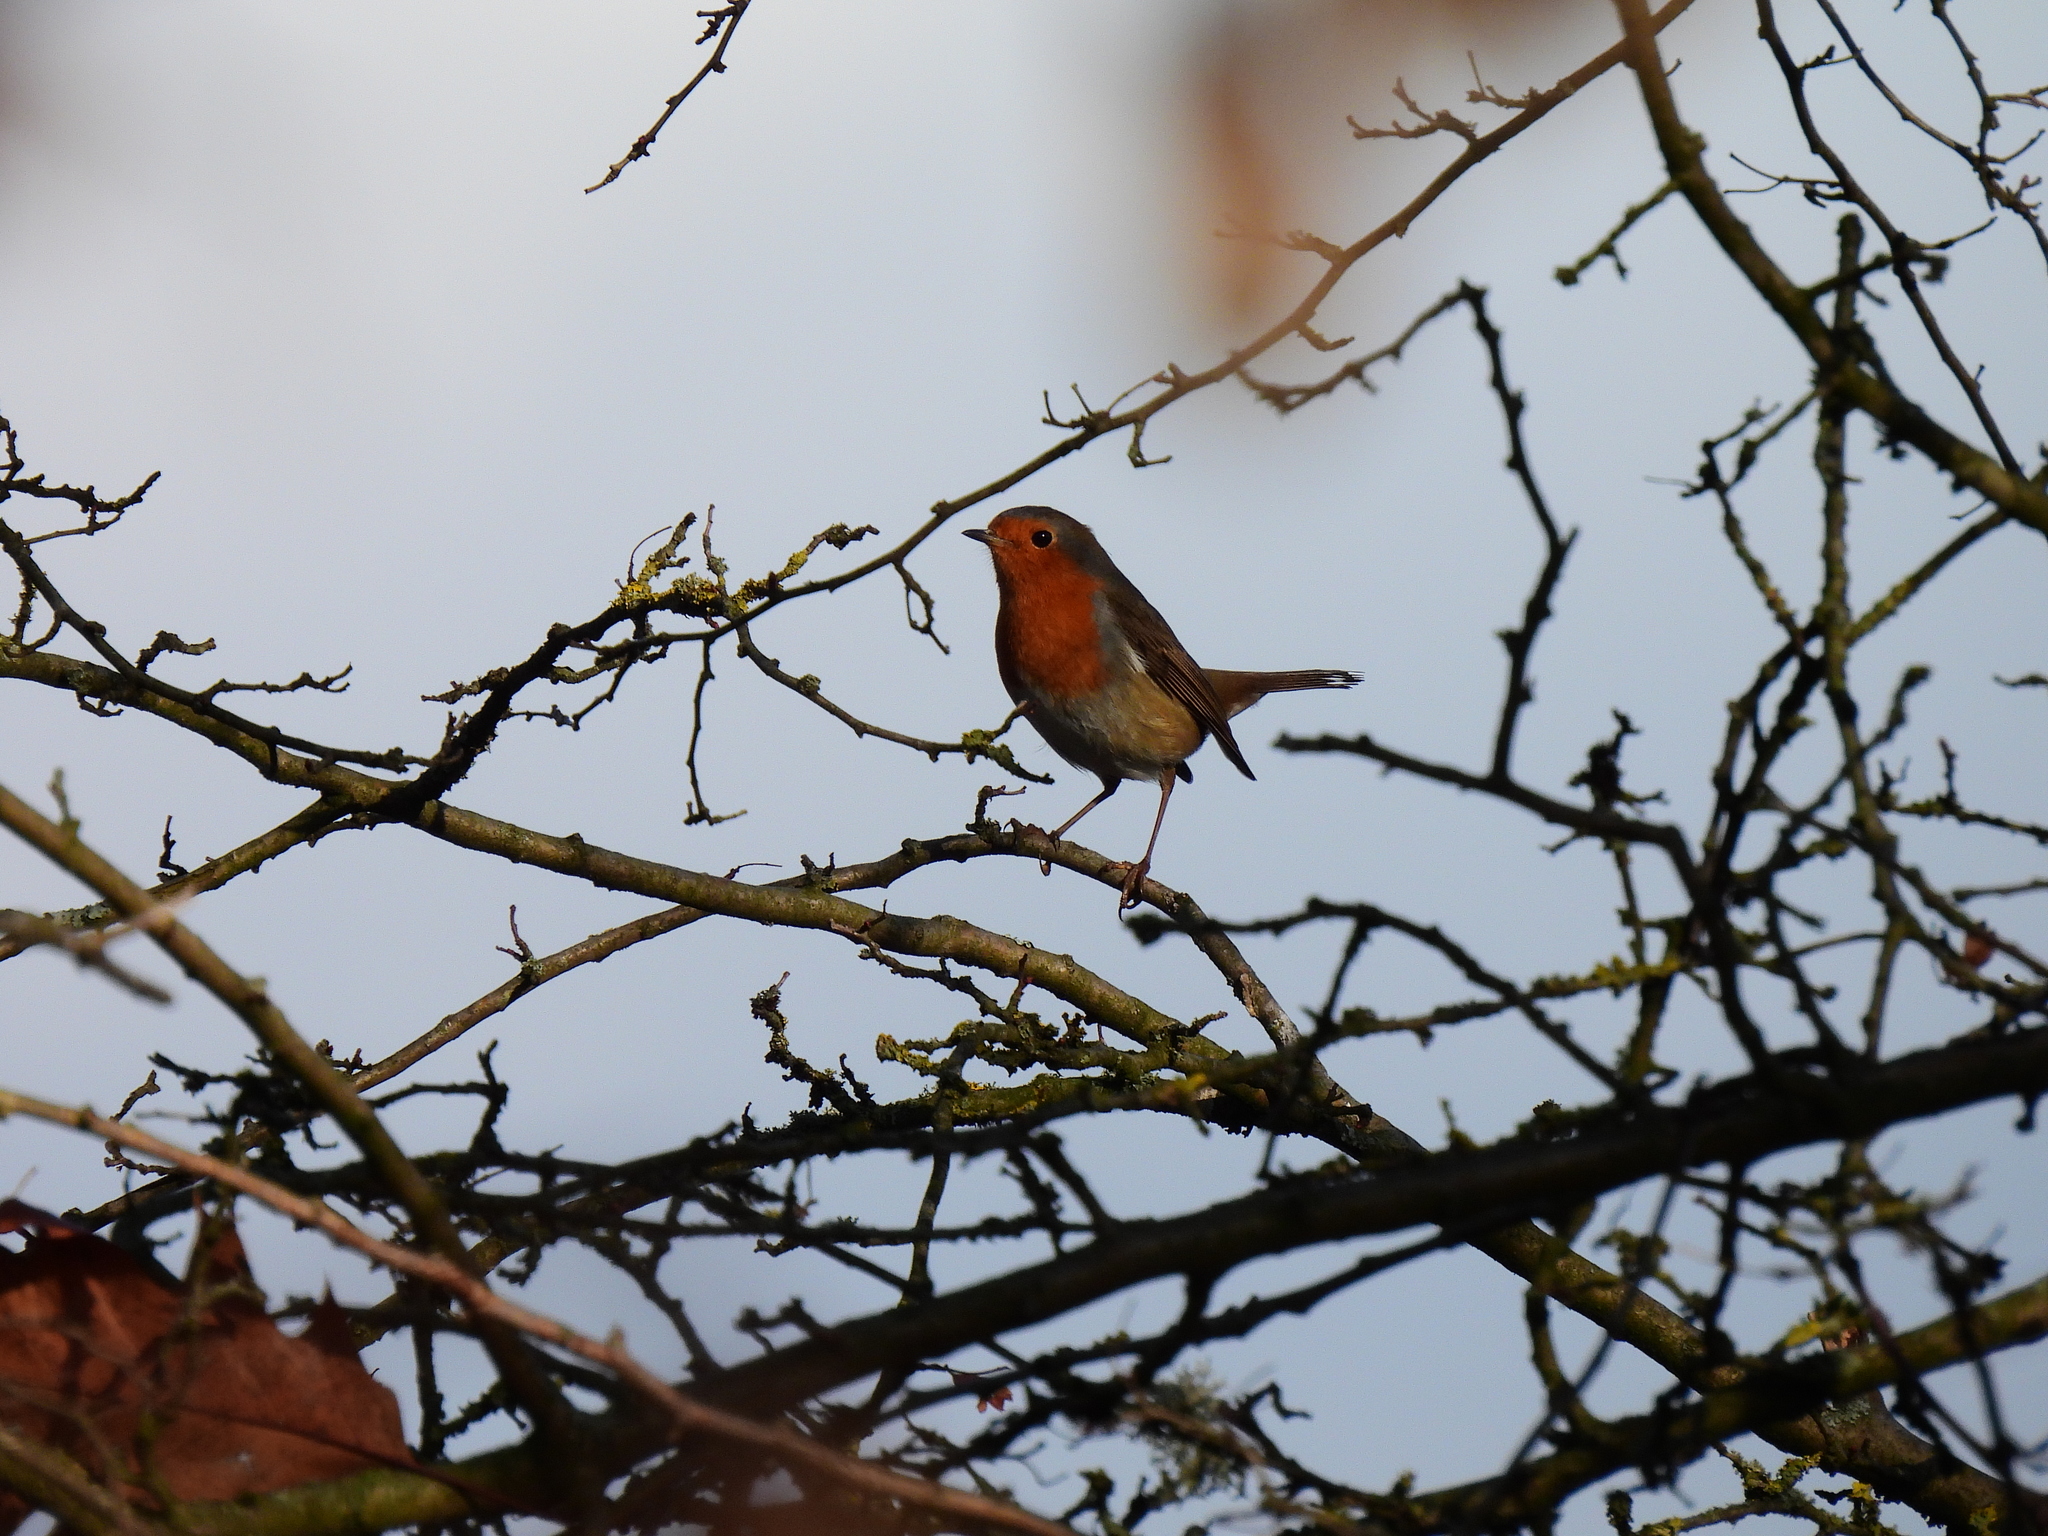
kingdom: Animalia
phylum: Chordata
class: Aves
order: Passeriformes
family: Muscicapidae
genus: Erithacus
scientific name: Erithacus rubecula
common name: European robin
